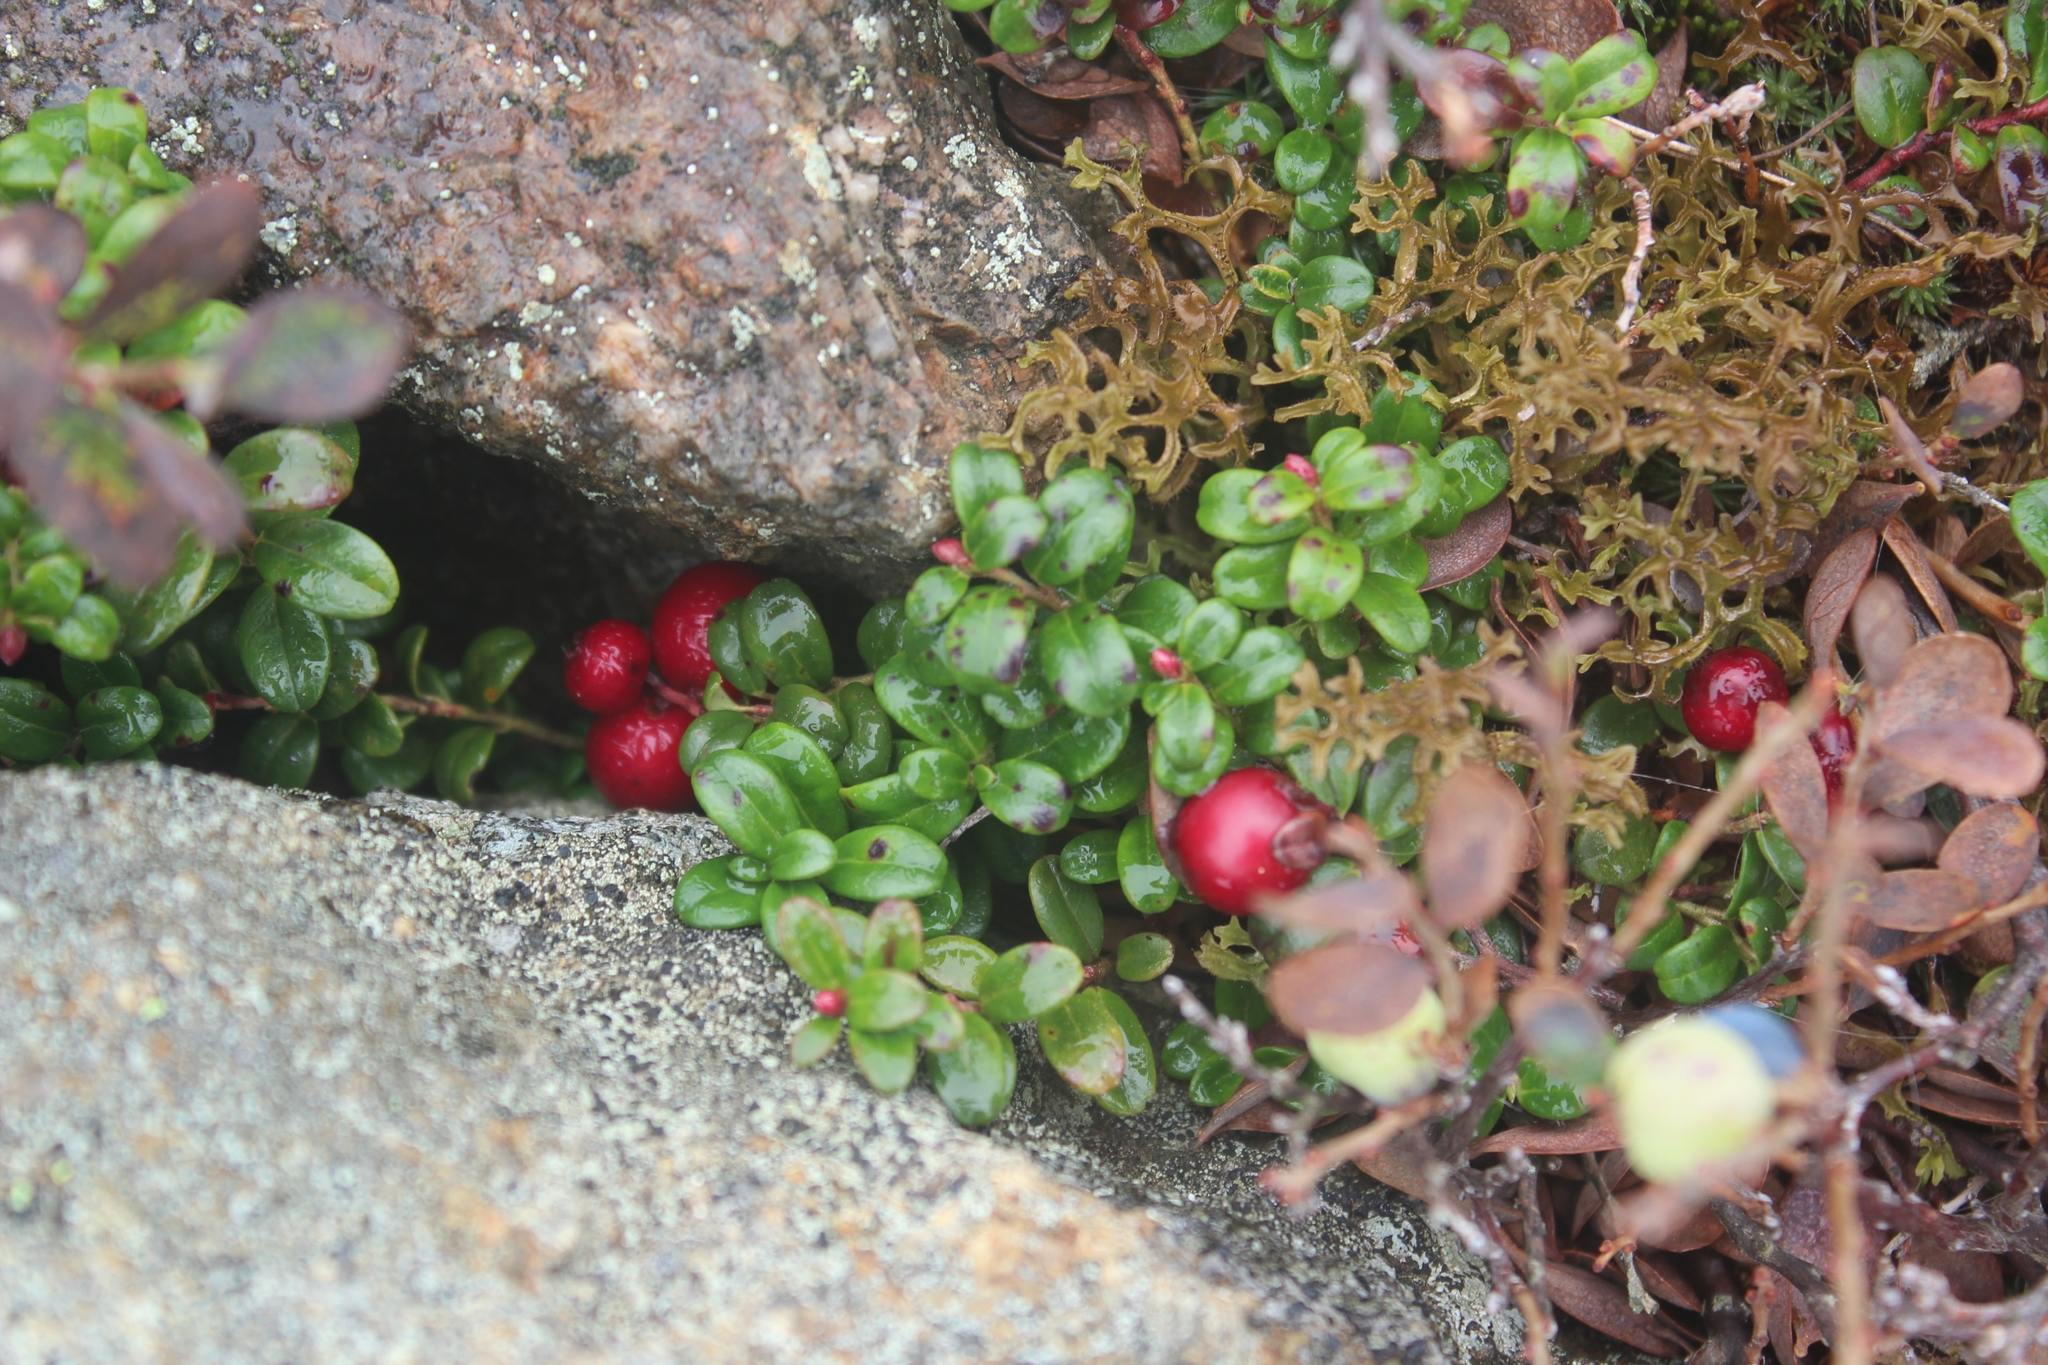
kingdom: Plantae
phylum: Tracheophyta
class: Magnoliopsida
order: Ericales
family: Ericaceae
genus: Vaccinium
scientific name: Vaccinium vitis-idaea
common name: Cowberry
